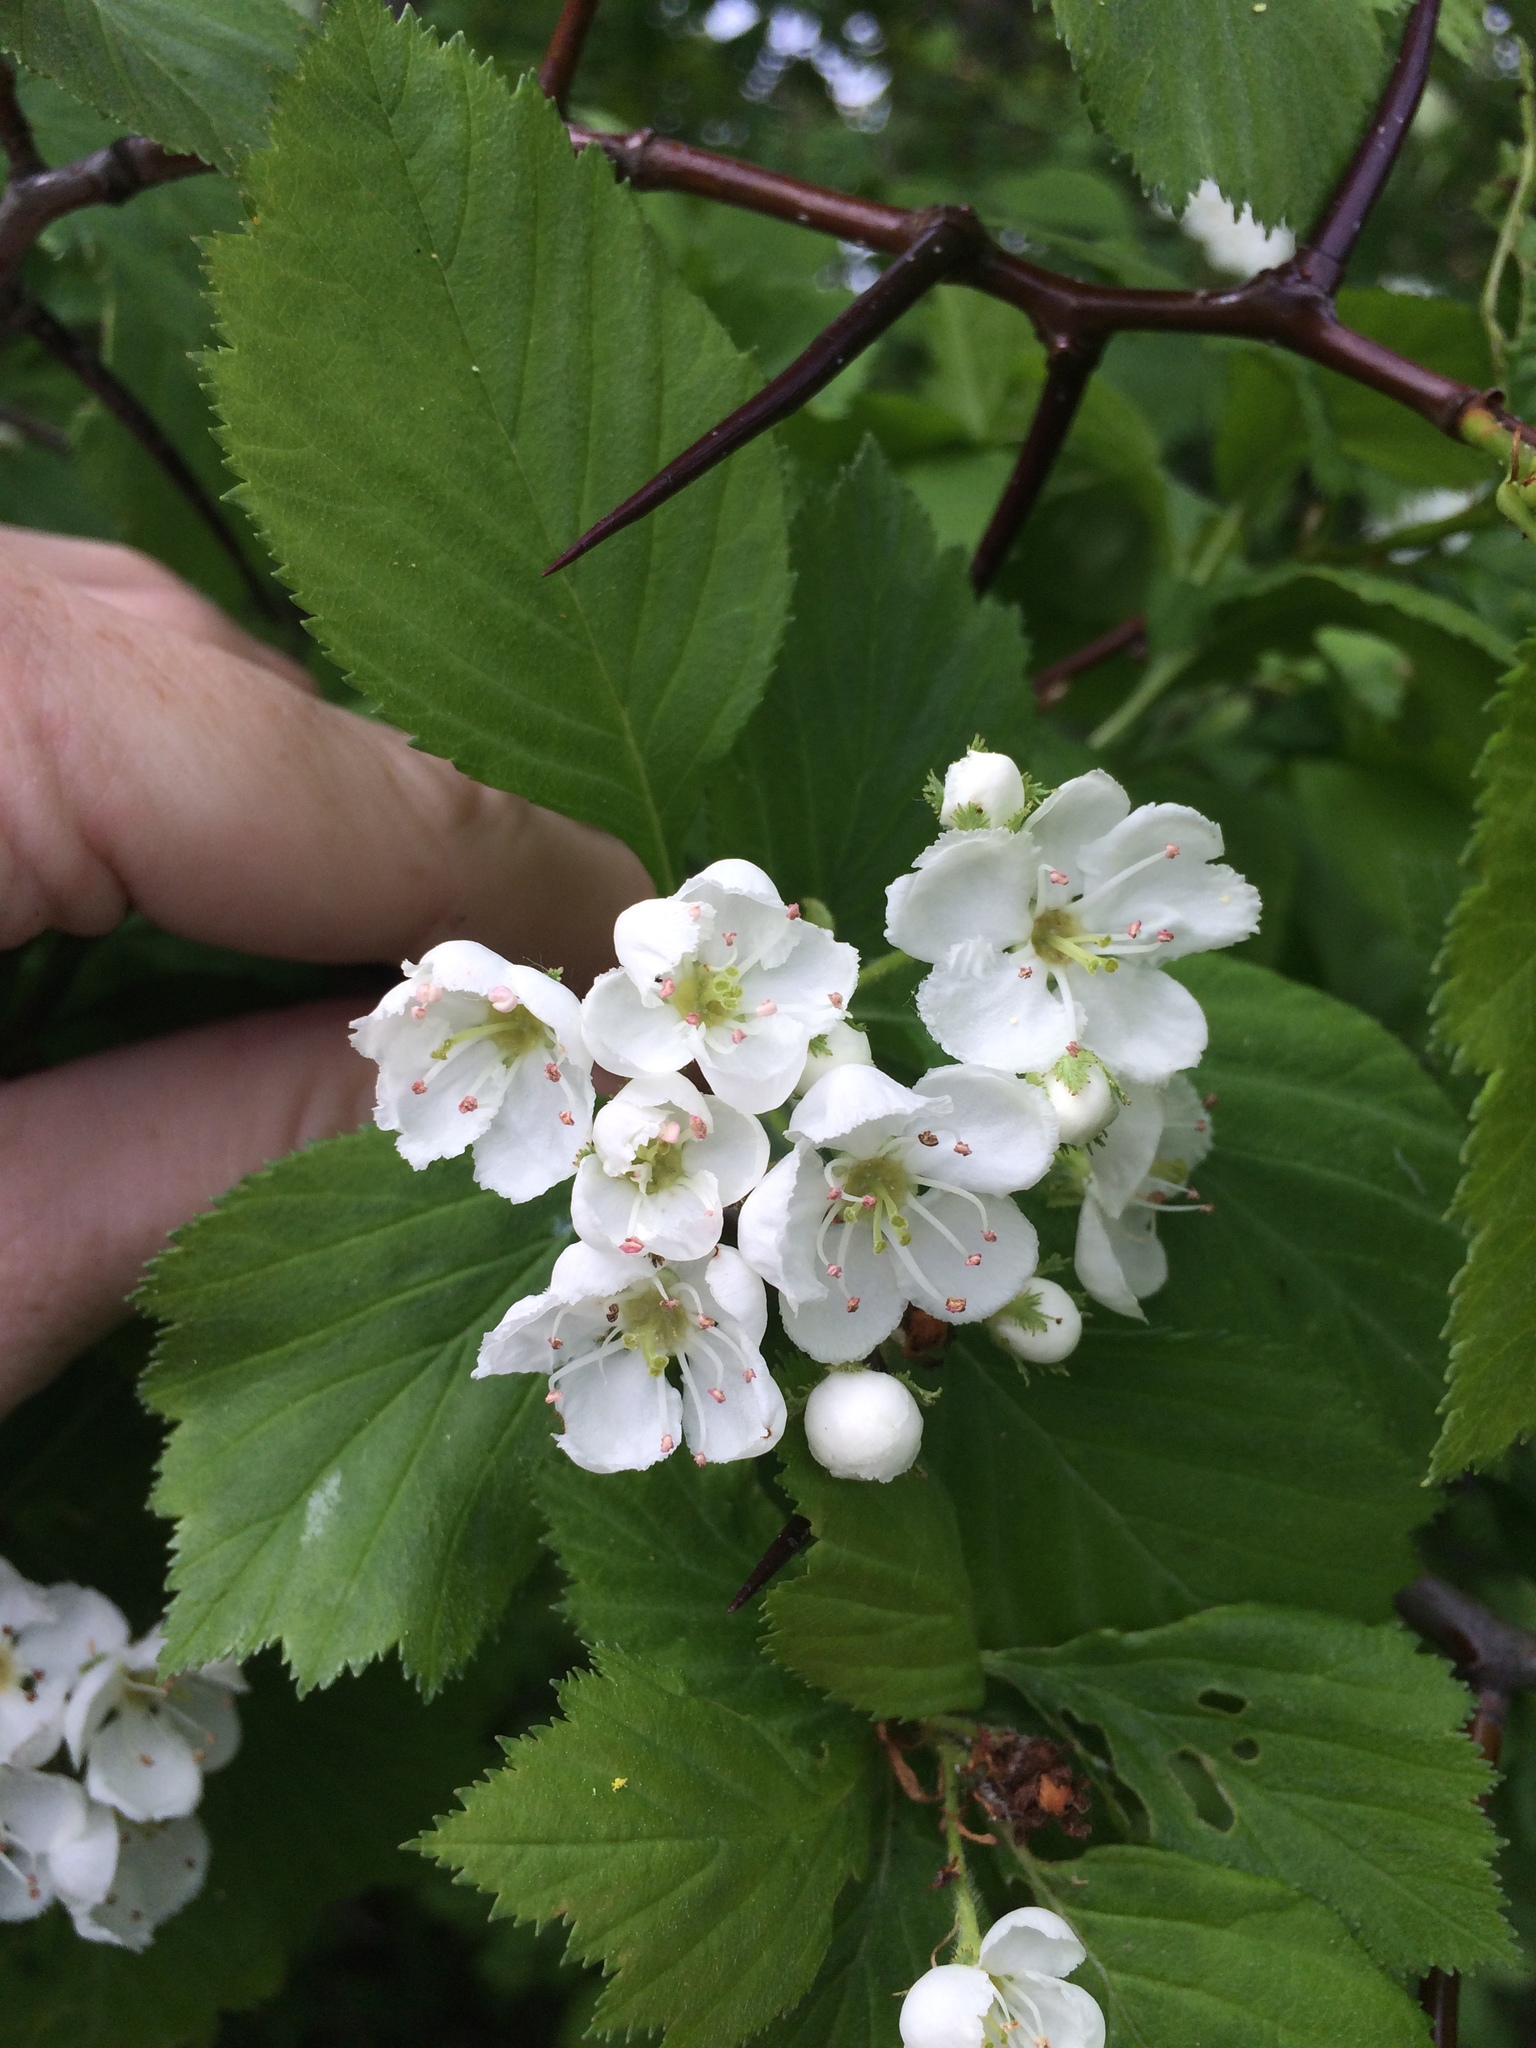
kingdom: Plantae
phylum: Tracheophyta
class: Magnoliopsida
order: Rosales
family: Rosaceae
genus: Crataegus
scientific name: Crataegus macracantha
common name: Large-thorn hawthorn
